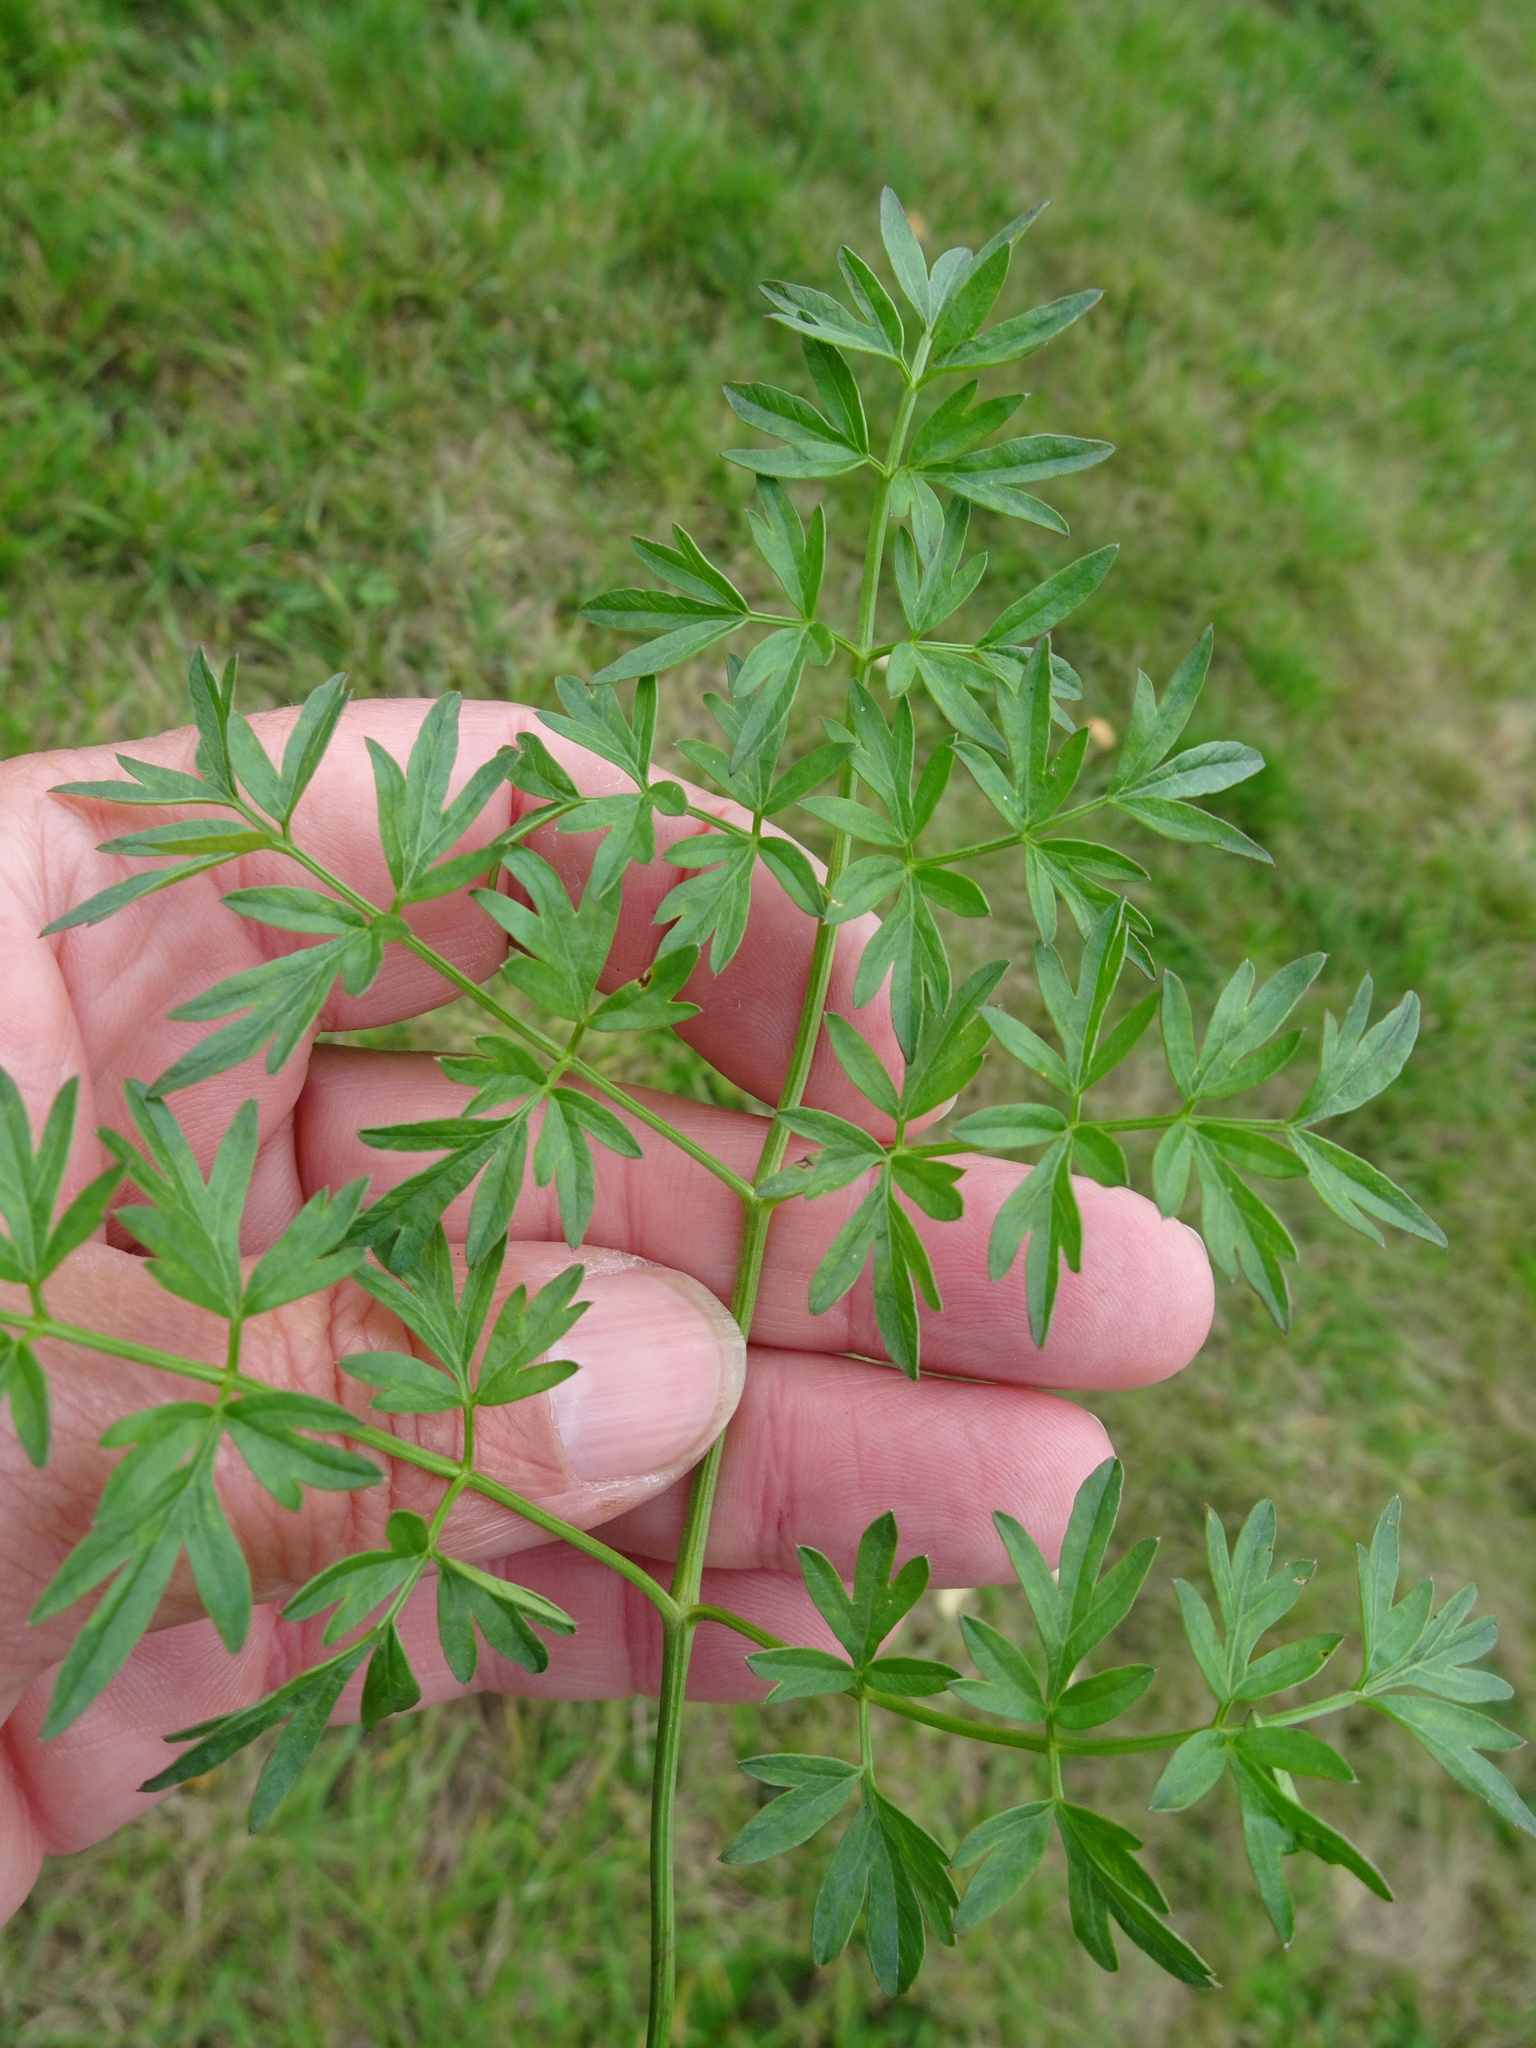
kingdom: Plantae
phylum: Tracheophyta
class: Magnoliopsida
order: Apiales
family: Apiaceae
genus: Silaum
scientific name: Silaum silaus
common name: Pepper-saxifrage
